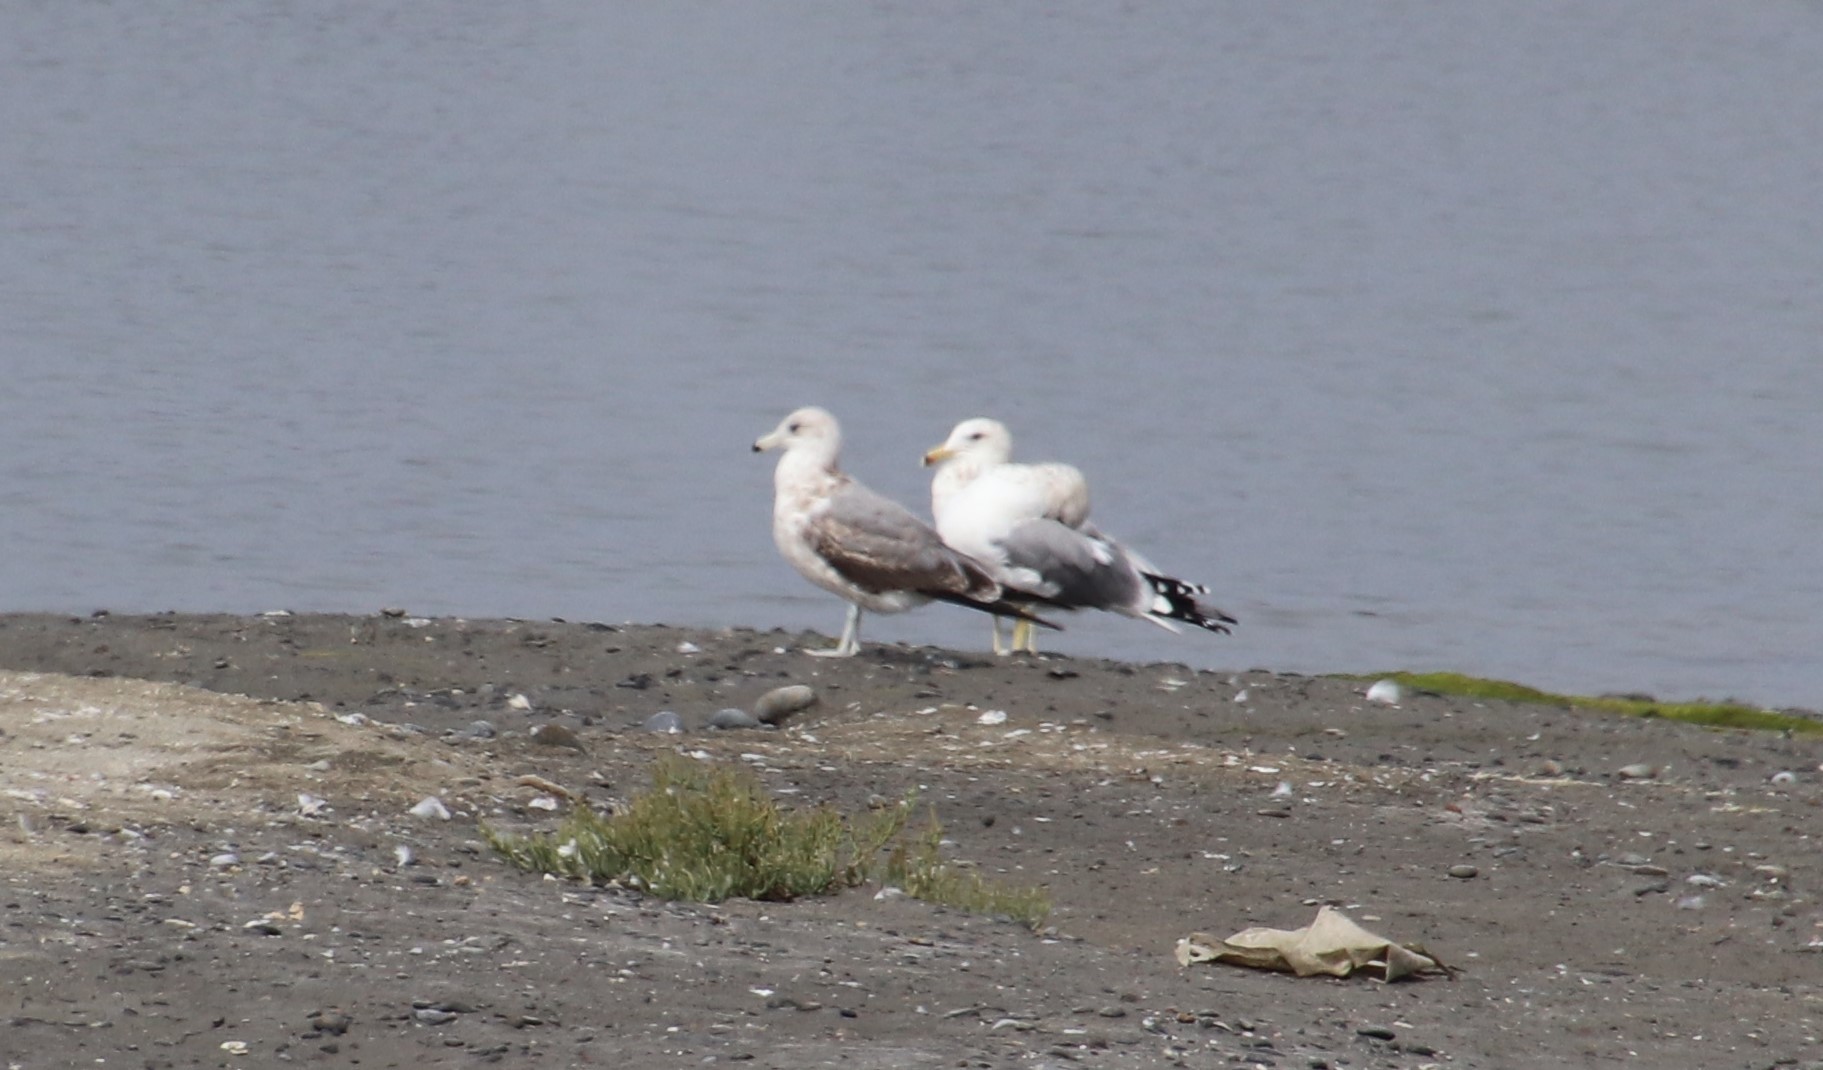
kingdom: Animalia
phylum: Chordata
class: Aves
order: Charadriiformes
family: Laridae
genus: Larus
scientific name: Larus californicus
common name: California gull
